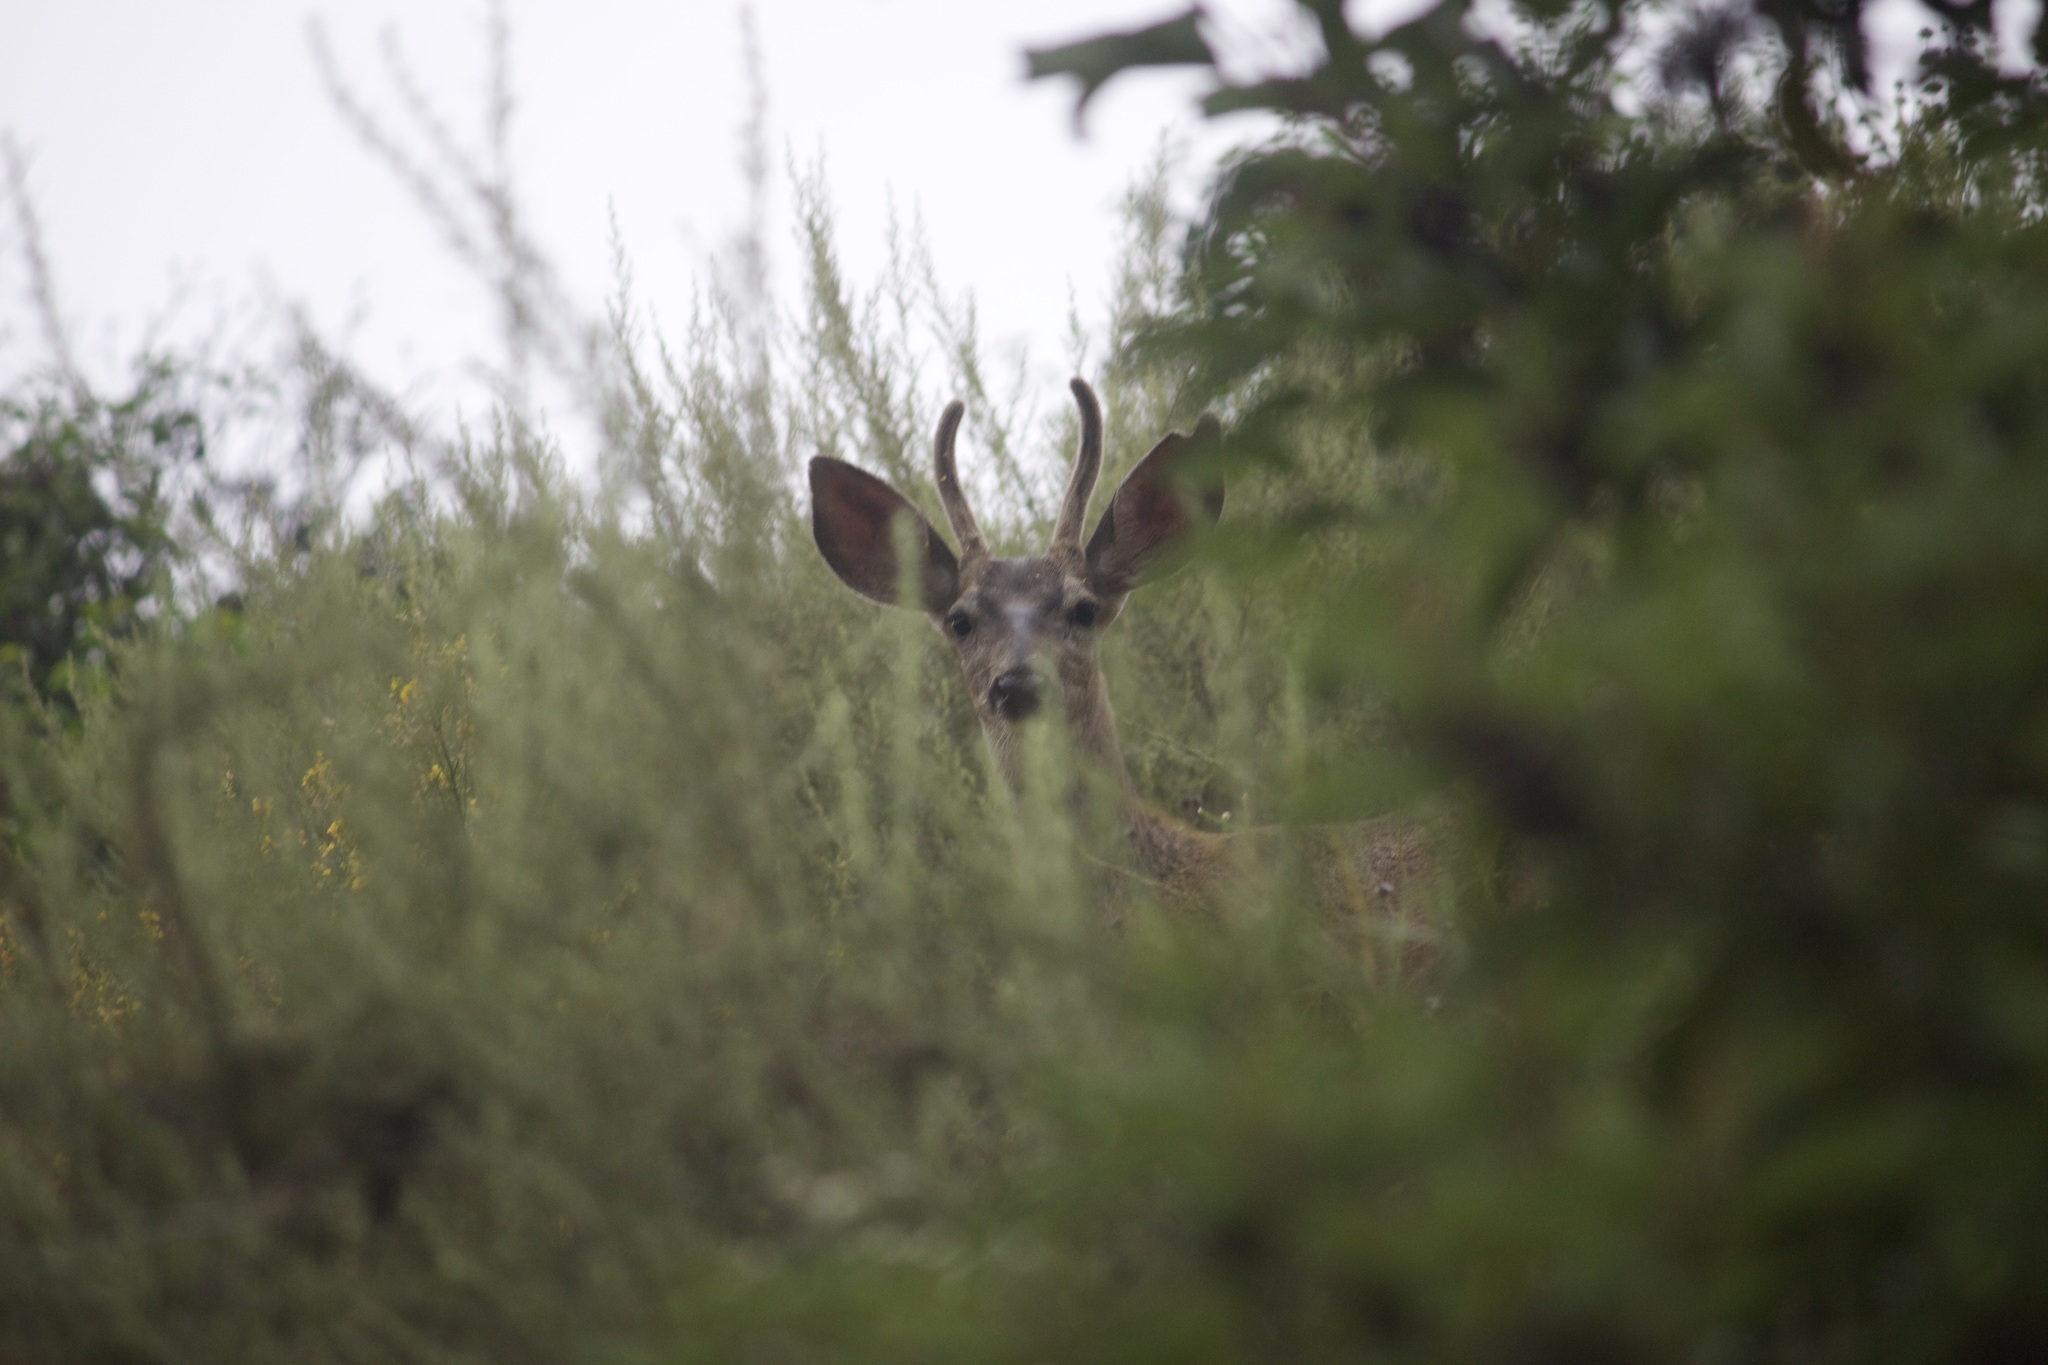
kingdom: Animalia
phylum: Chordata
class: Mammalia
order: Artiodactyla
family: Cervidae
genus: Odocoileus
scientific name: Odocoileus hemionus
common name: Mule deer
